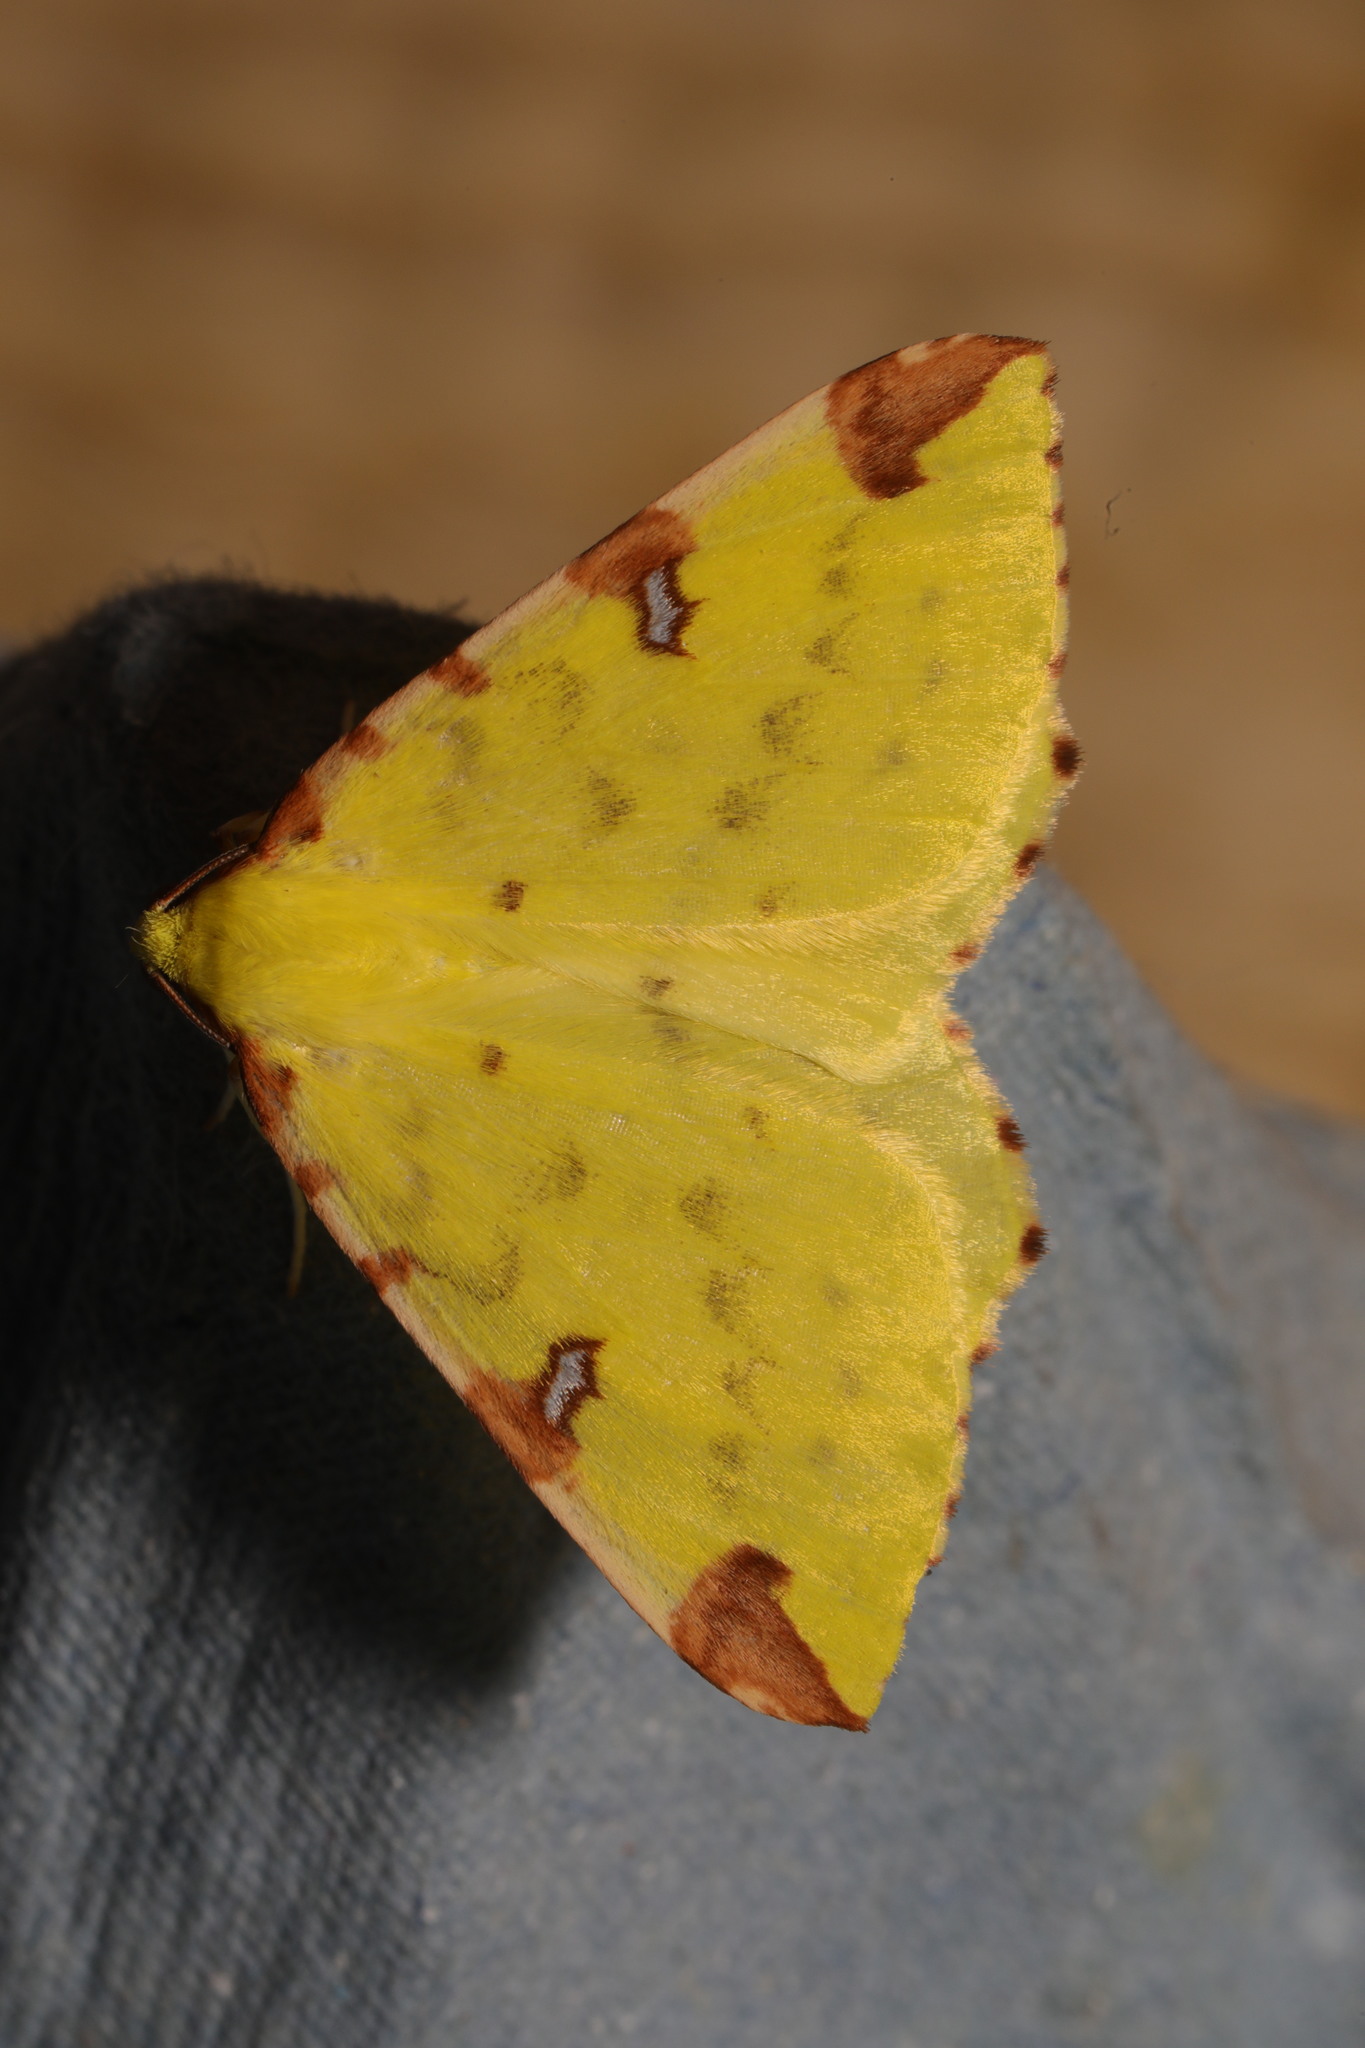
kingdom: Animalia
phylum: Arthropoda
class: Insecta
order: Lepidoptera
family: Geometridae
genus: Opisthograptis
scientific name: Opisthograptis luteolata
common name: Brimstone moth
